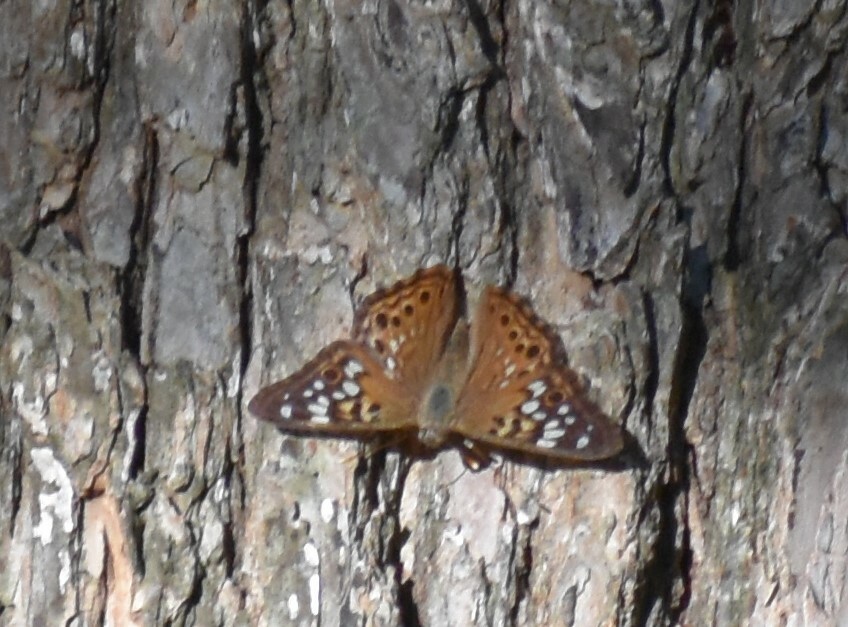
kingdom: Animalia
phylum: Arthropoda
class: Insecta
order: Lepidoptera
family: Nymphalidae
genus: Asterocampa
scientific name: Asterocampa celtis
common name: Hackberry emperor
